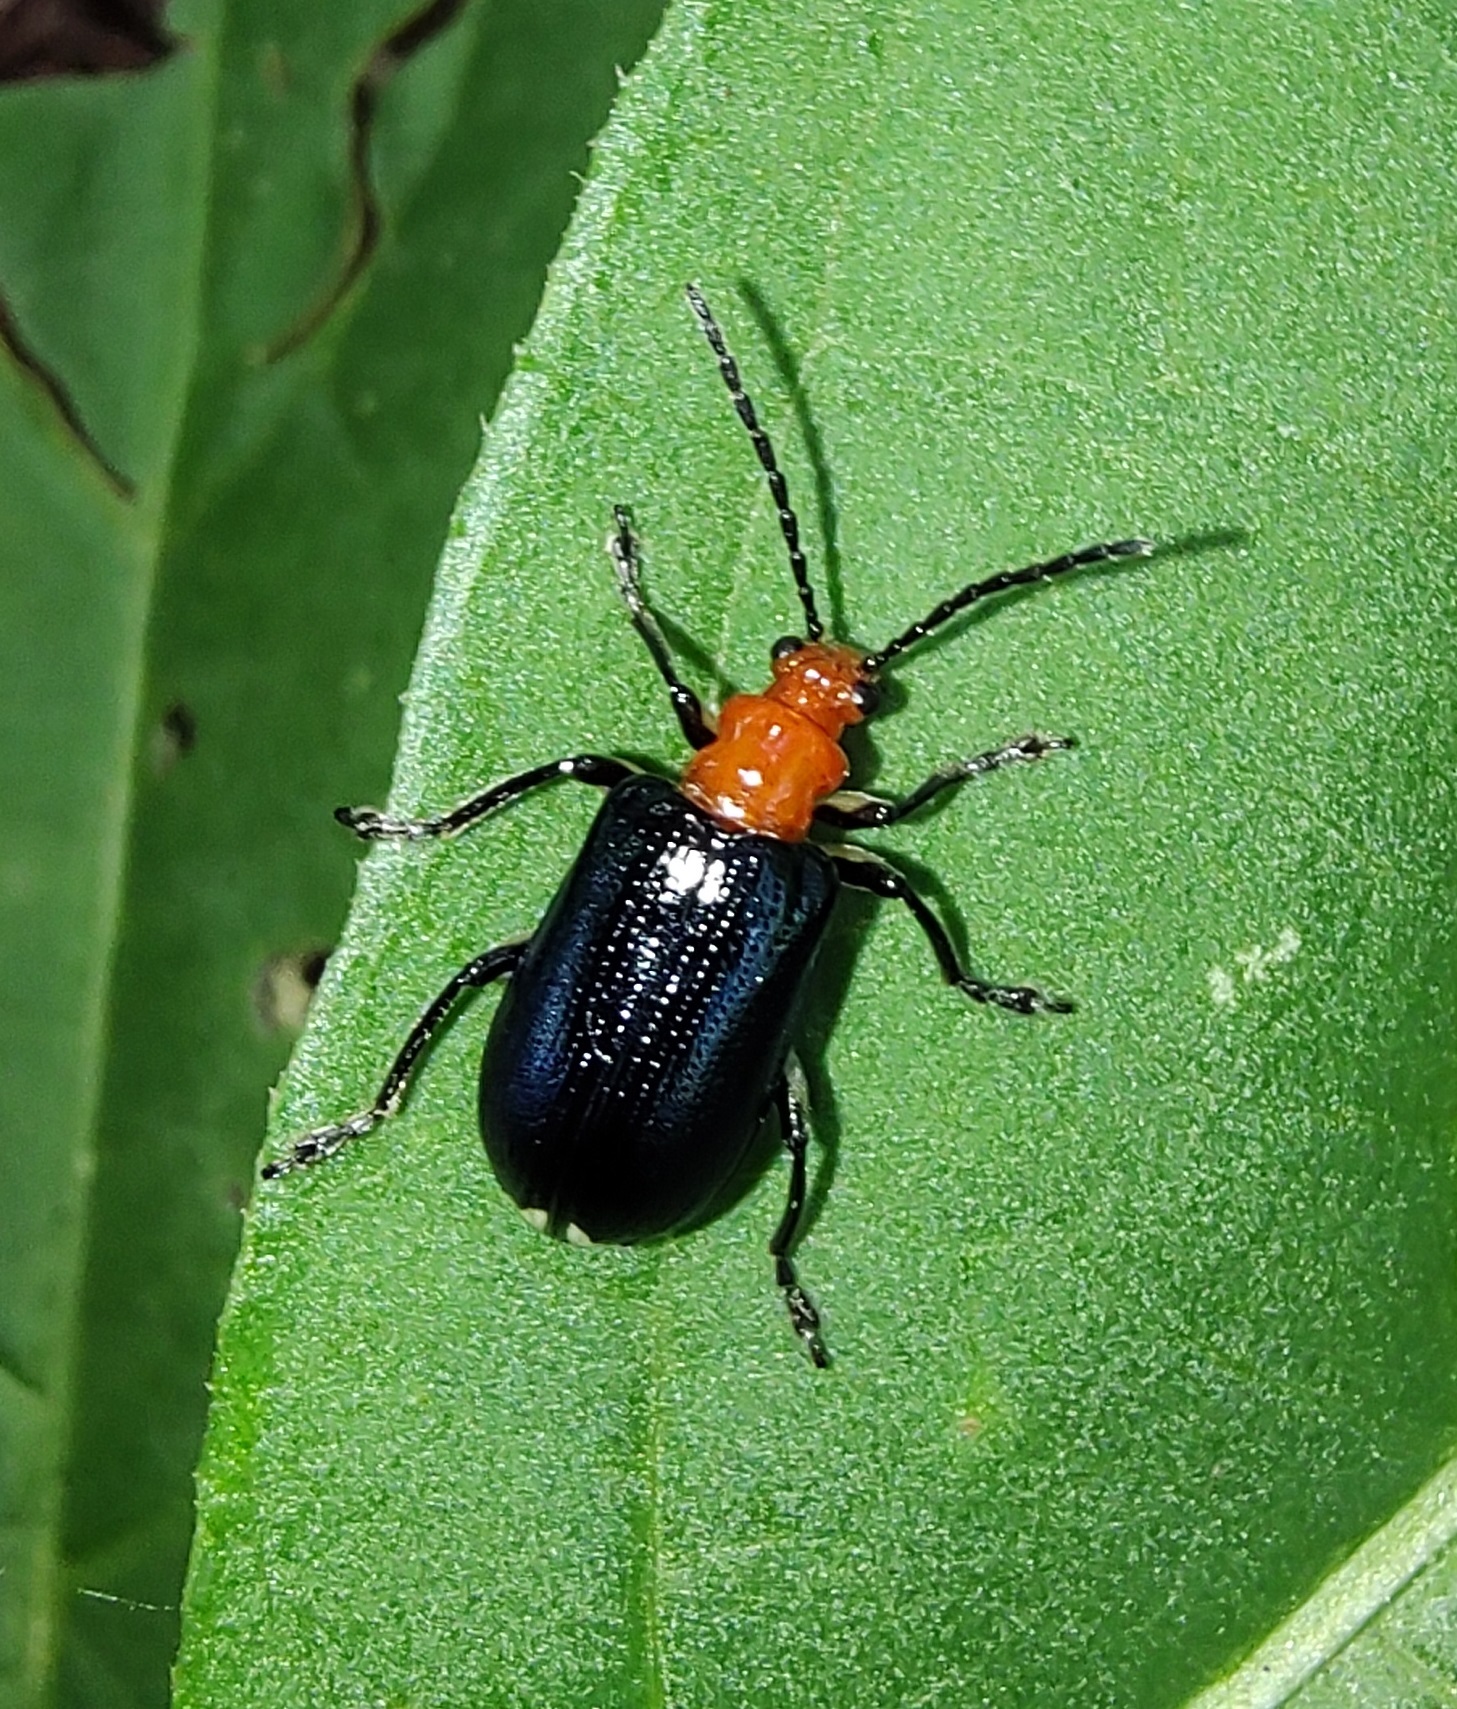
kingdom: Animalia
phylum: Arthropoda
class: Insecta
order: Coleoptera
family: Chrysomelidae
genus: Stolas
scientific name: Stolas chalybaea
